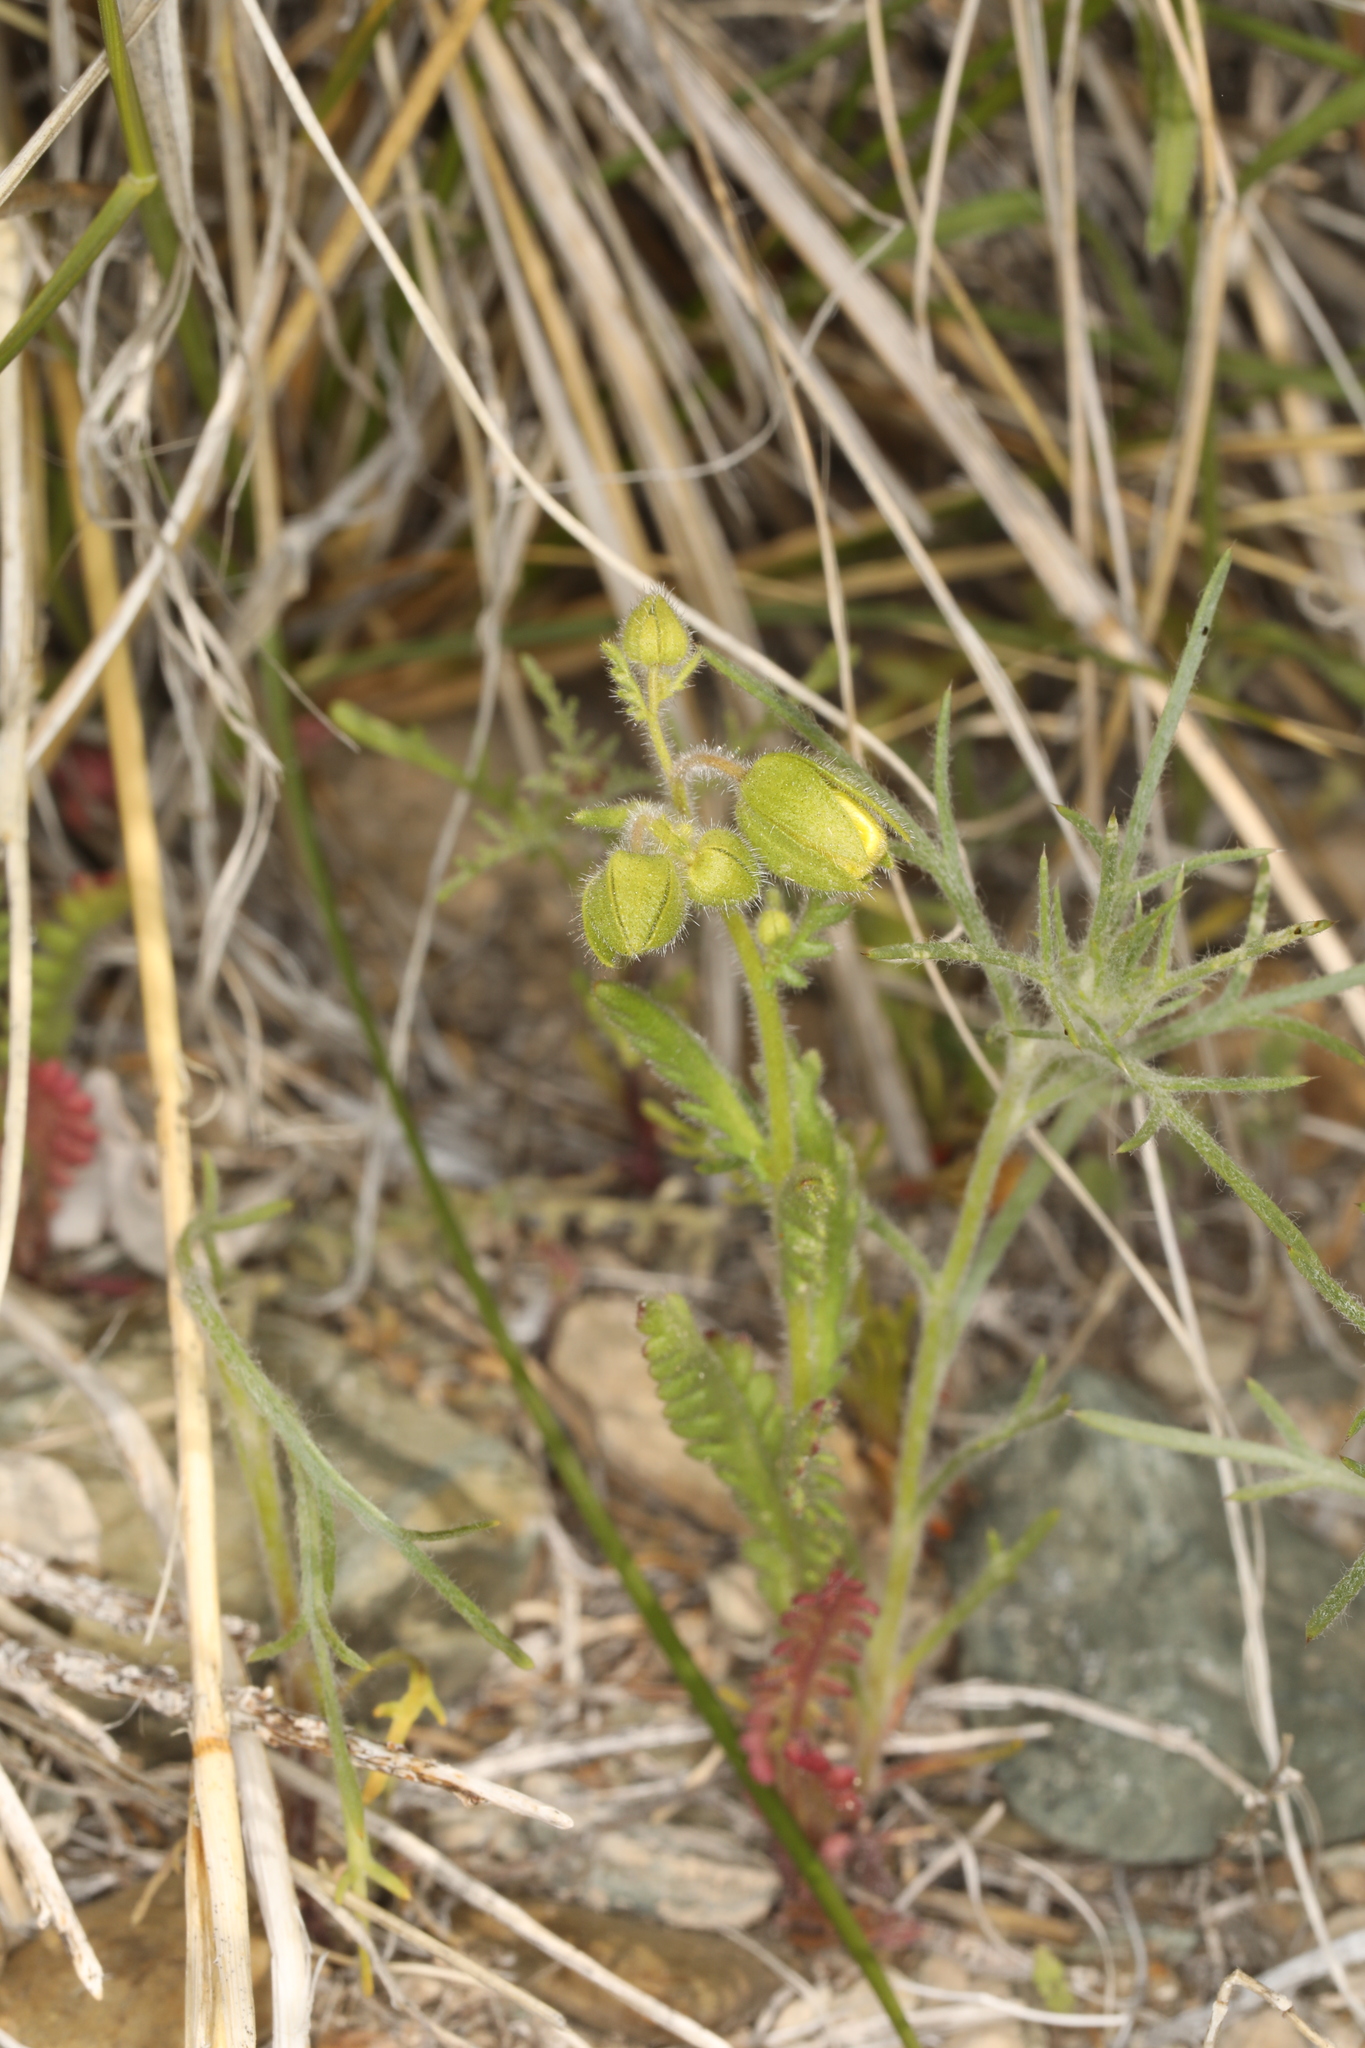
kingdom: Plantae
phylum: Tracheophyta
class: Magnoliopsida
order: Boraginales
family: Hydrophyllaceae
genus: Emmenanthe
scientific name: Emmenanthe penduliflora
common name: Whispering-bells
